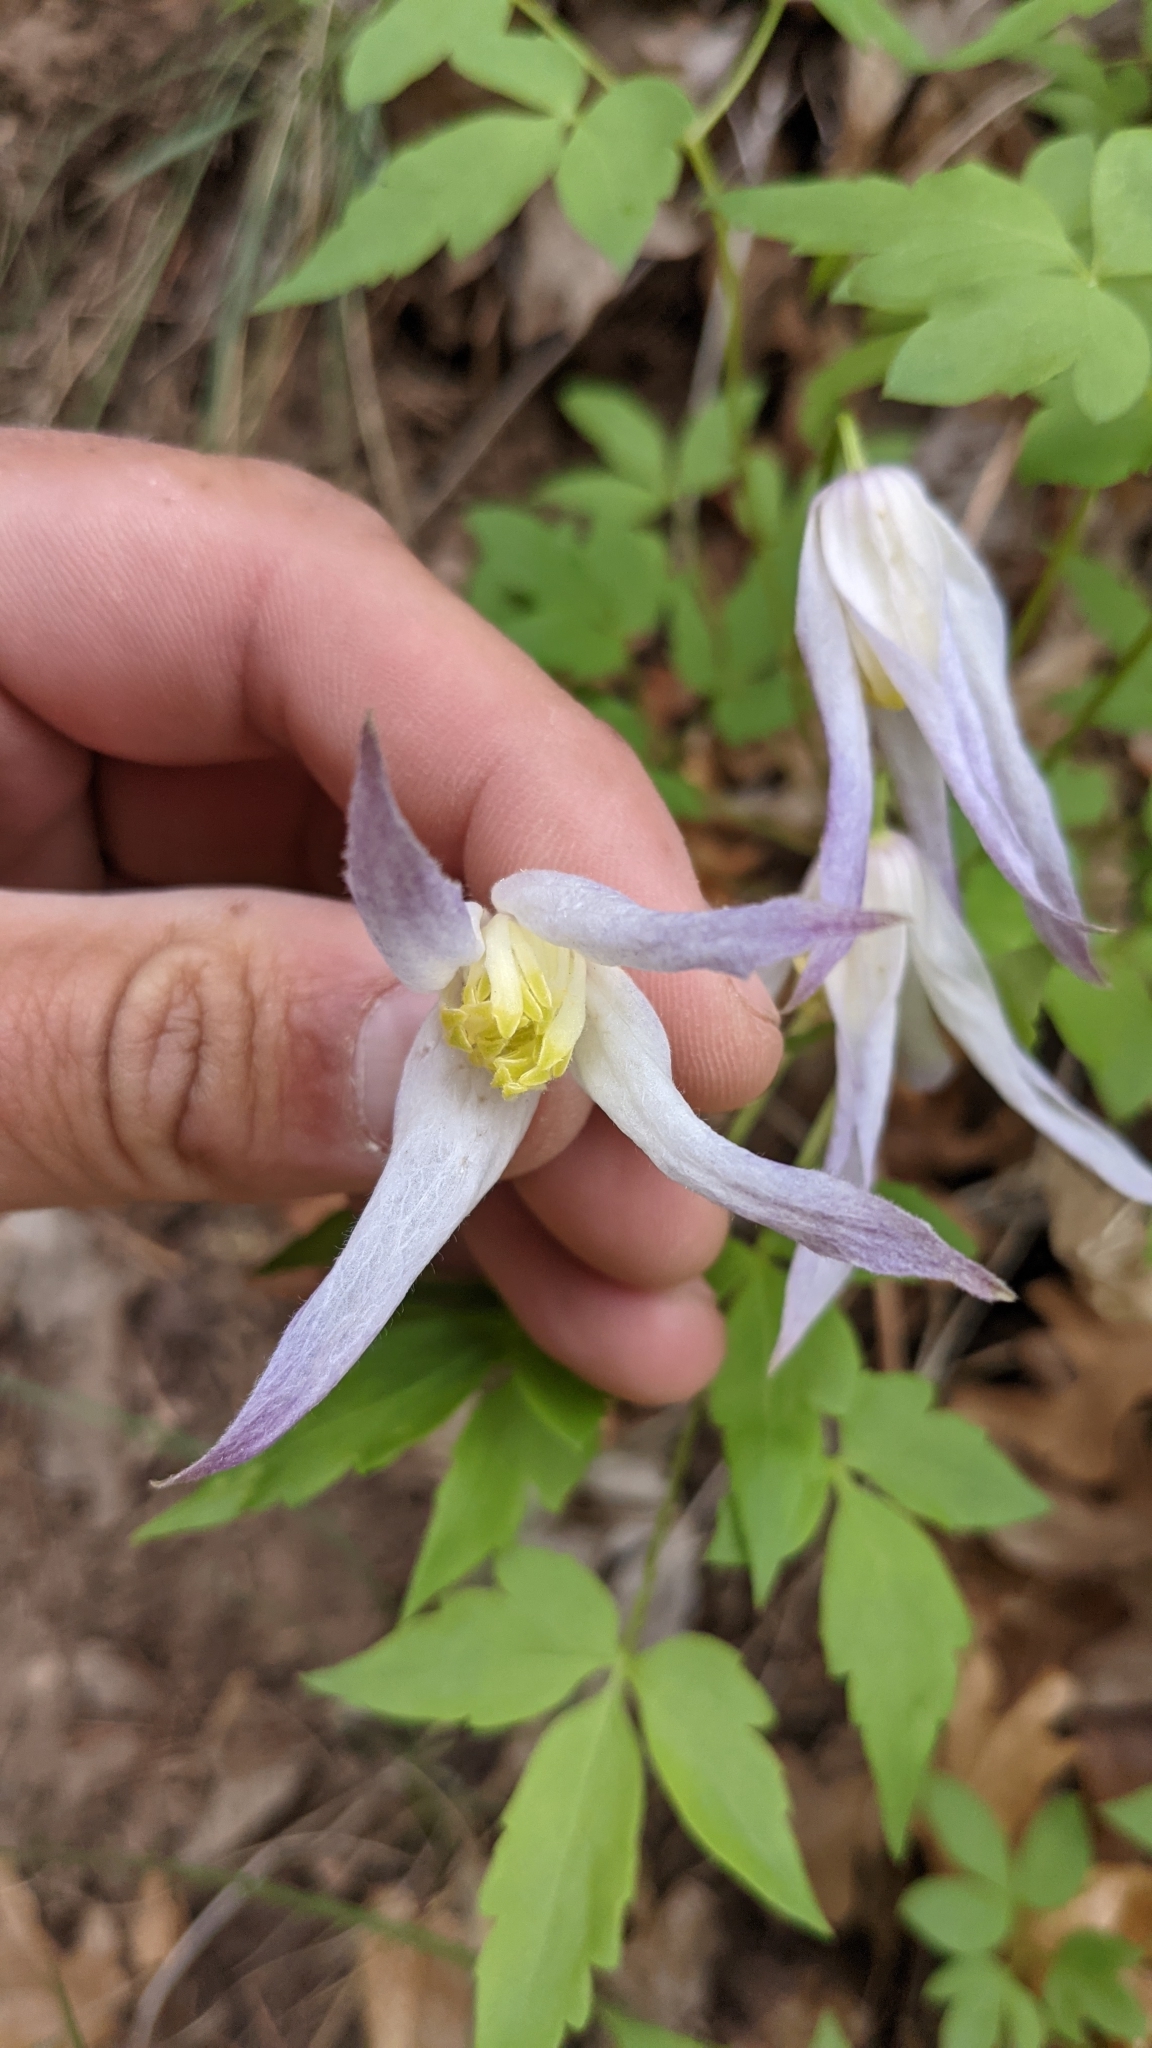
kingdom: Plantae
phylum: Tracheophyta
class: Magnoliopsida
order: Ranunculales
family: Ranunculaceae
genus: Clematis
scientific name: Clematis columbiana
